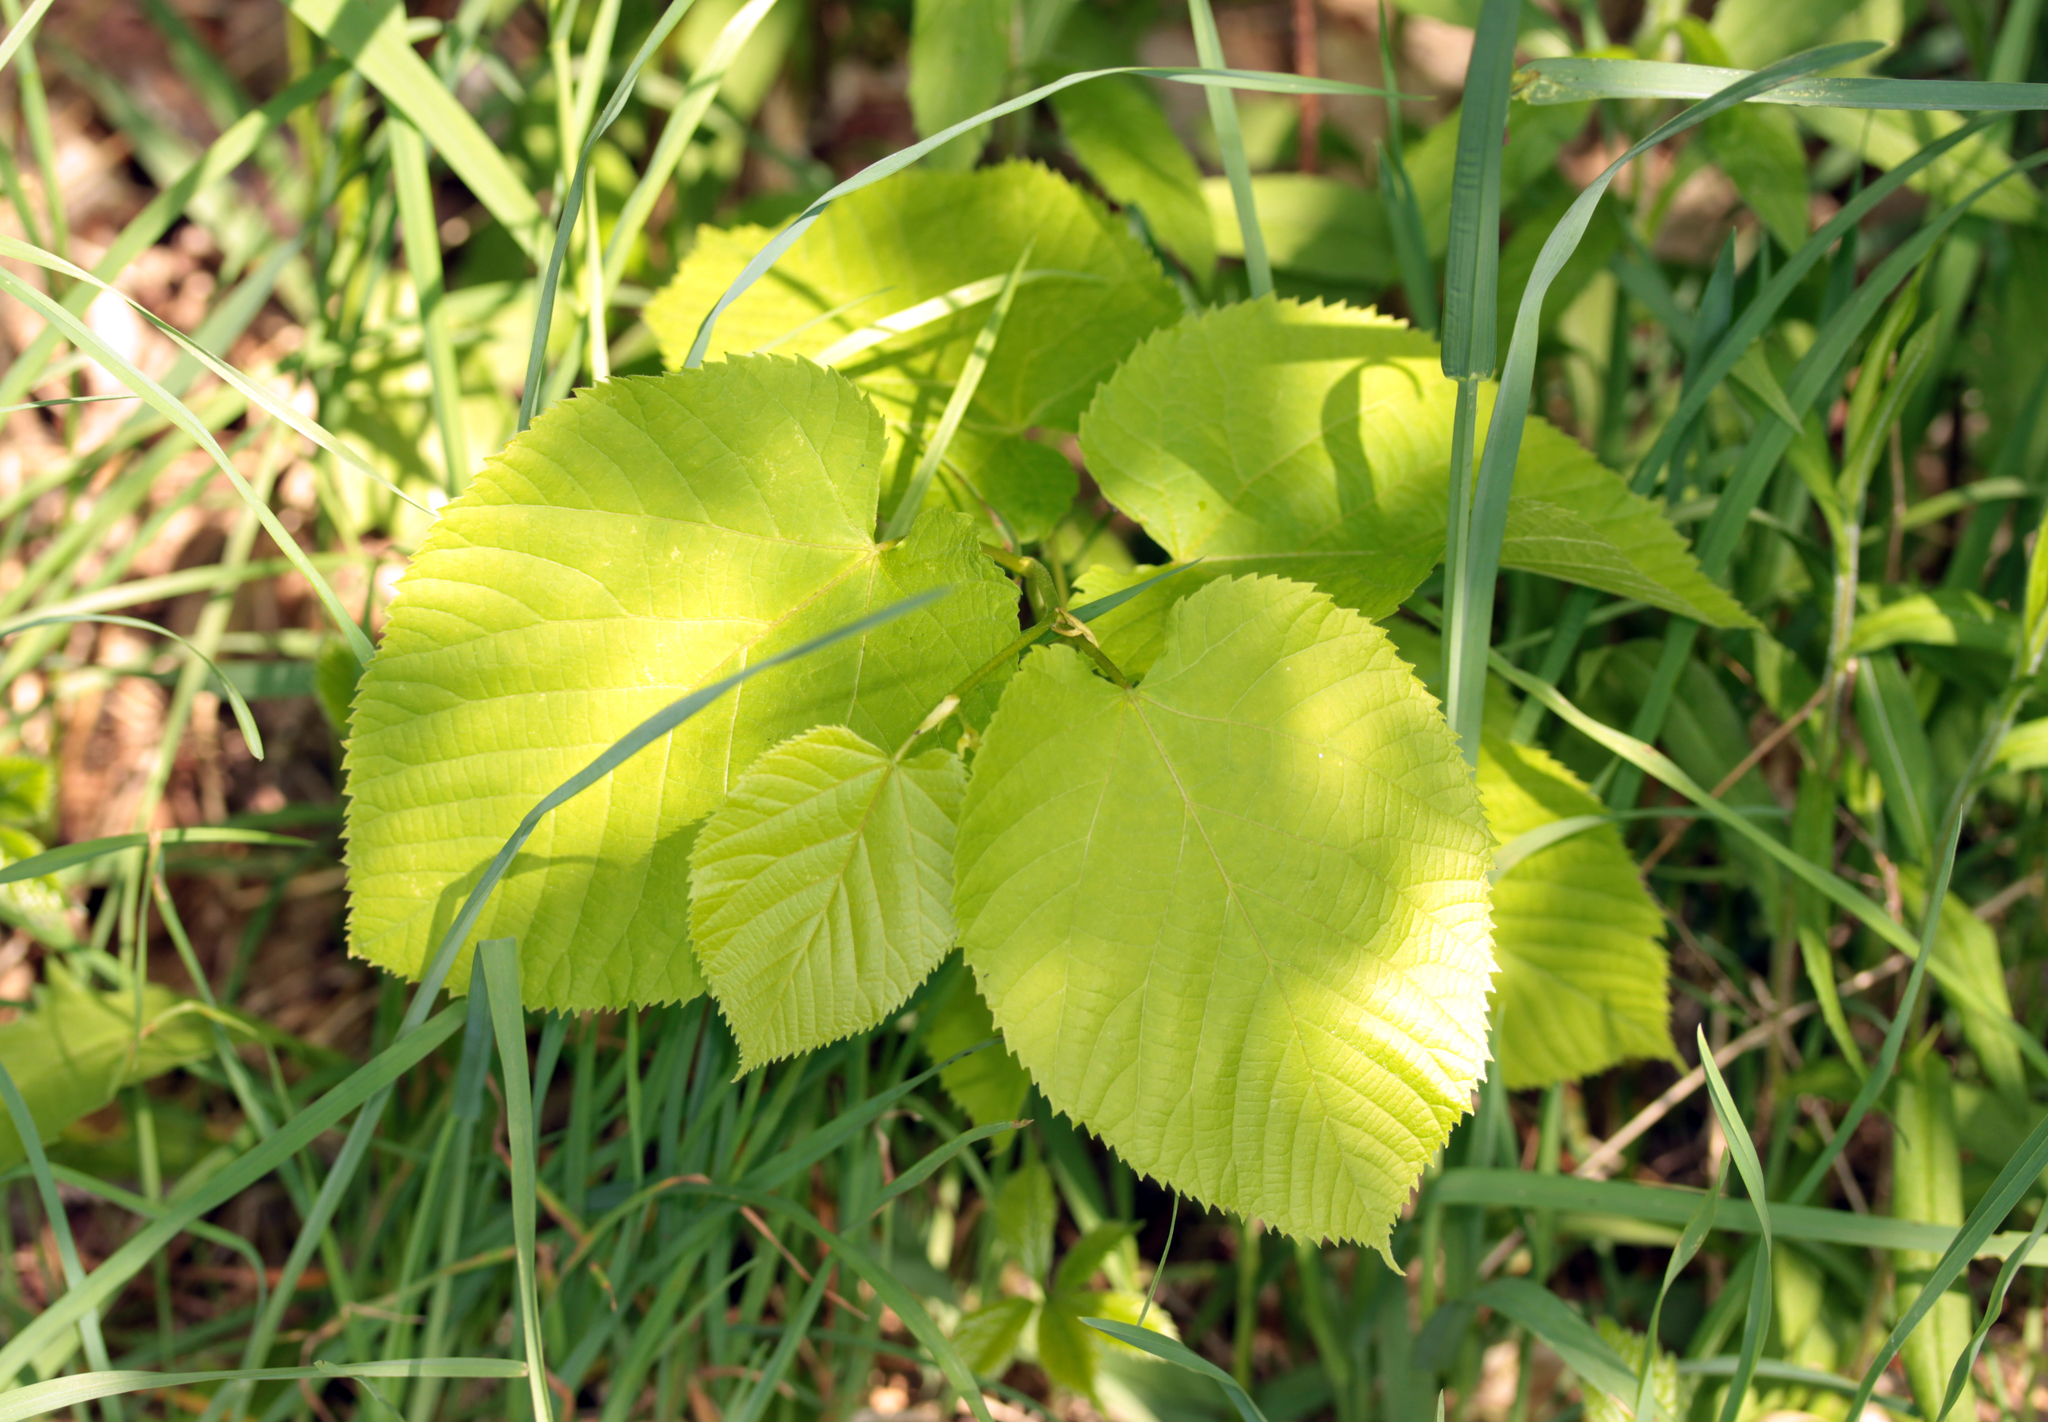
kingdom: Plantae
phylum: Tracheophyta
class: Magnoliopsida
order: Malvales
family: Malvaceae
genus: Tilia
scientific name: Tilia americana
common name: Basswood
